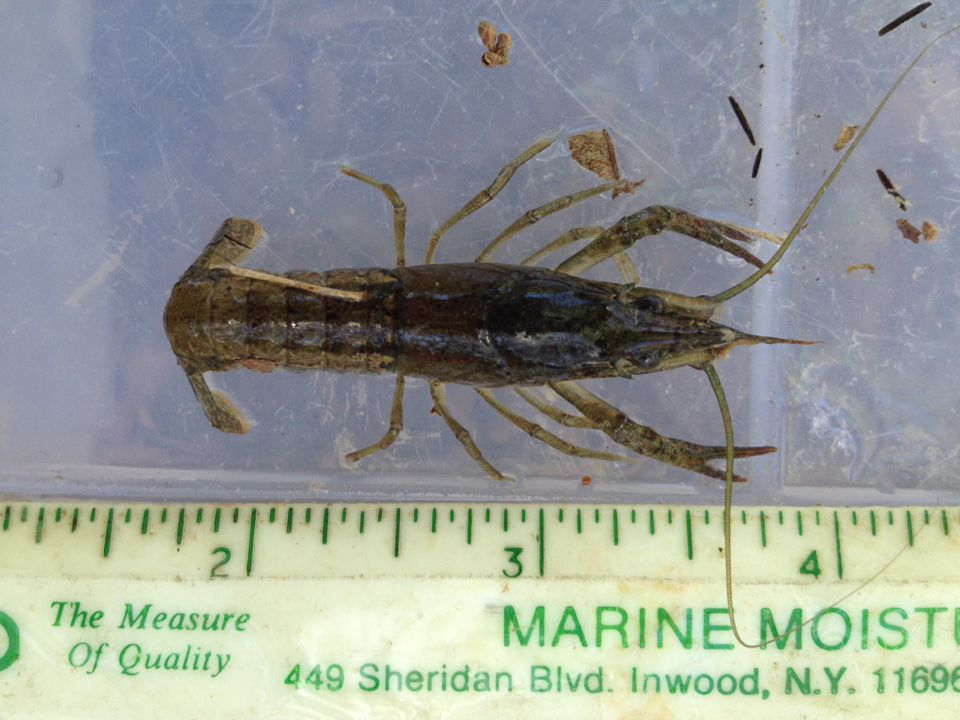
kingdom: Animalia
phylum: Arthropoda
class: Malacostraca
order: Decapoda
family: Cambaridae
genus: Procambarus
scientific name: Procambarus clarkii
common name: Red swamp crayfish
